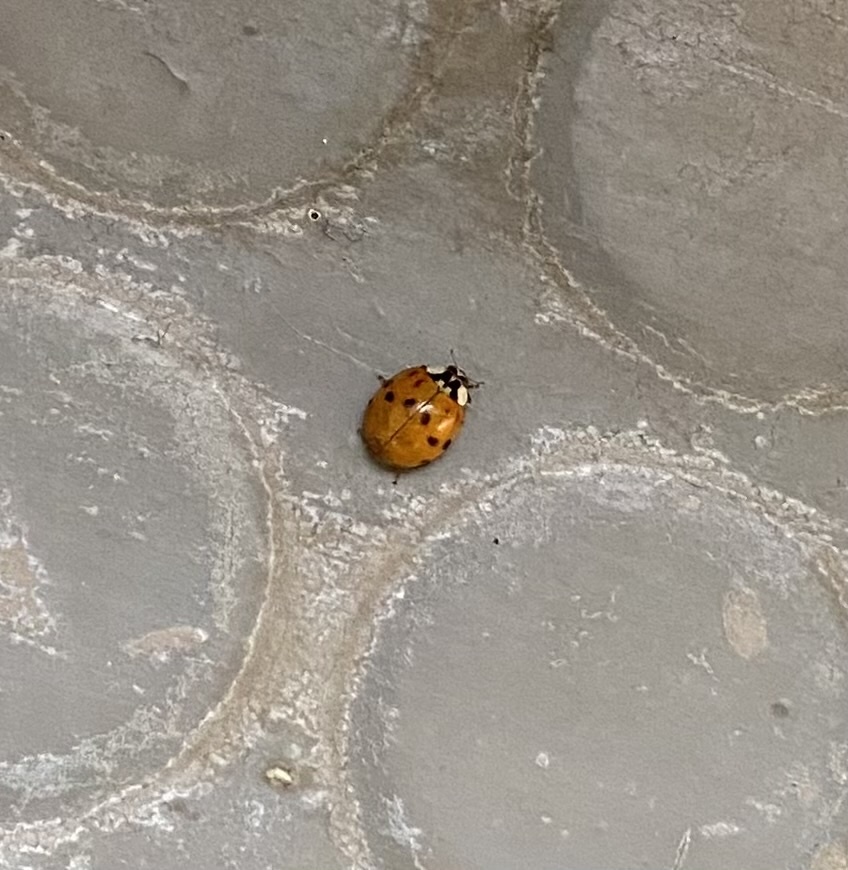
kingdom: Animalia
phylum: Arthropoda
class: Insecta
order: Coleoptera
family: Coccinellidae
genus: Harmonia
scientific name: Harmonia axyridis
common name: Harlequin ladybird
